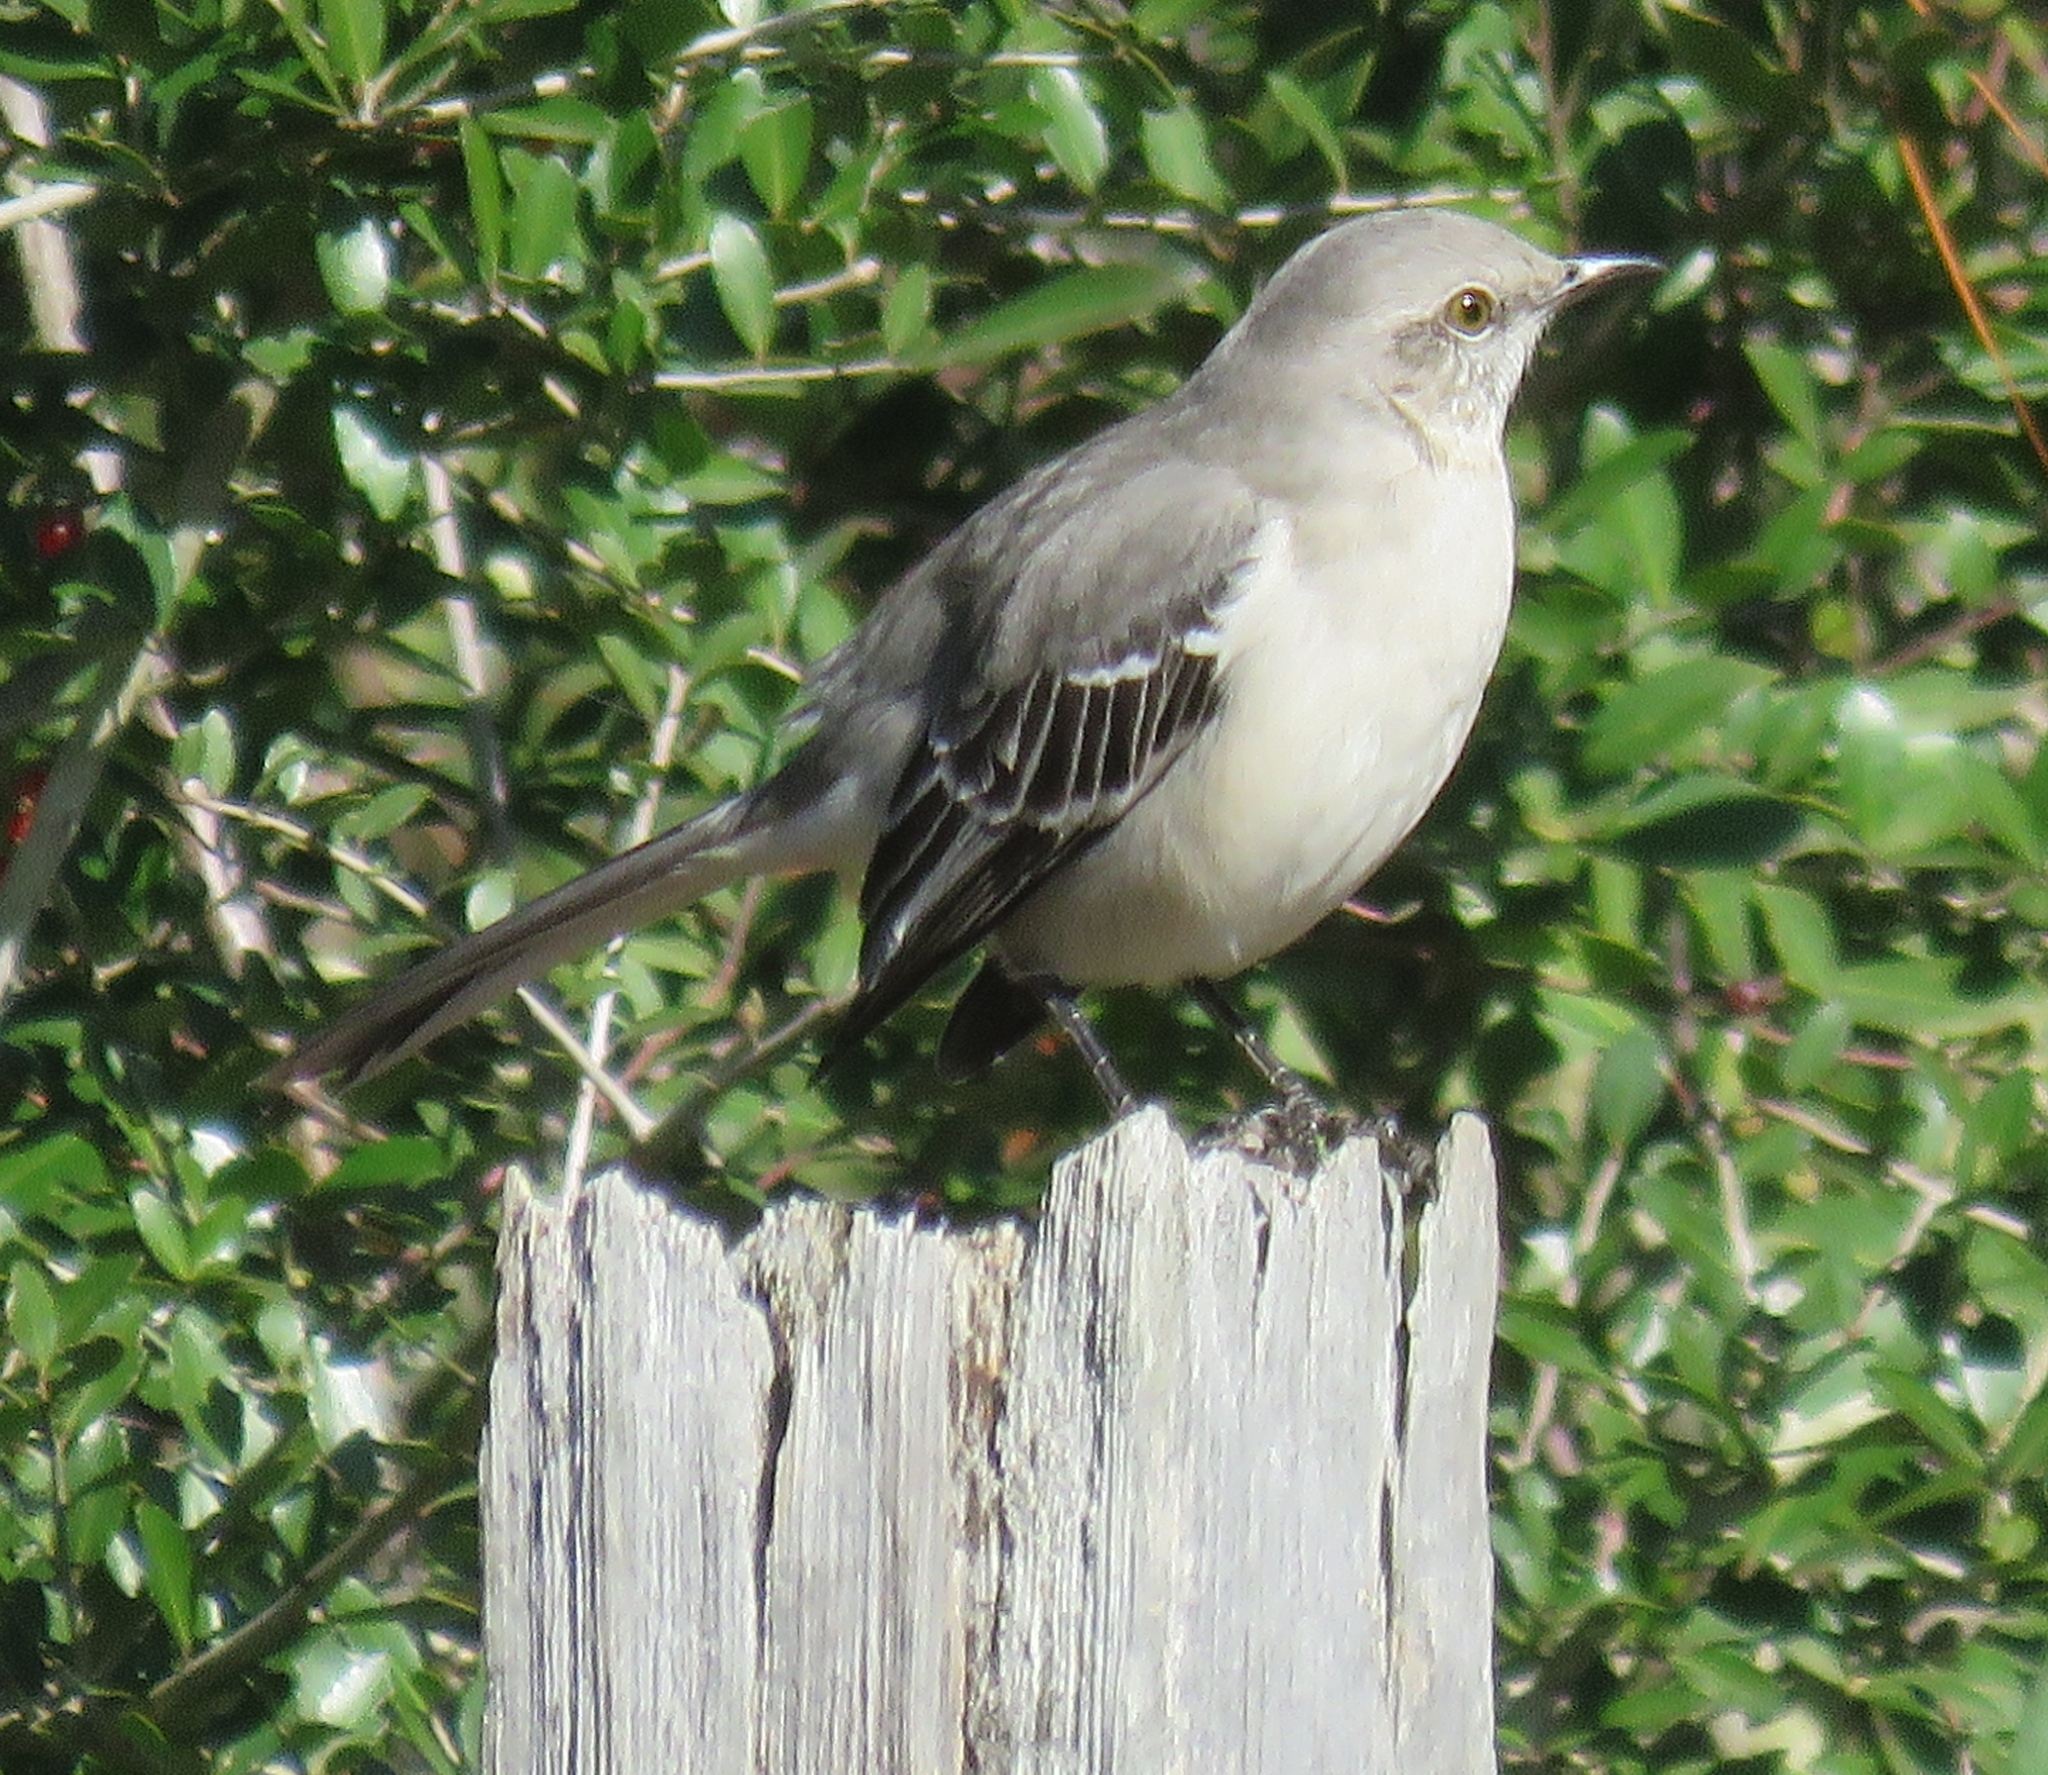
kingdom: Animalia
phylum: Chordata
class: Aves
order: Passeriformes
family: Mimidae
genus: Mimus
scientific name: Mimus polyglottos
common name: Northern mockingbird
